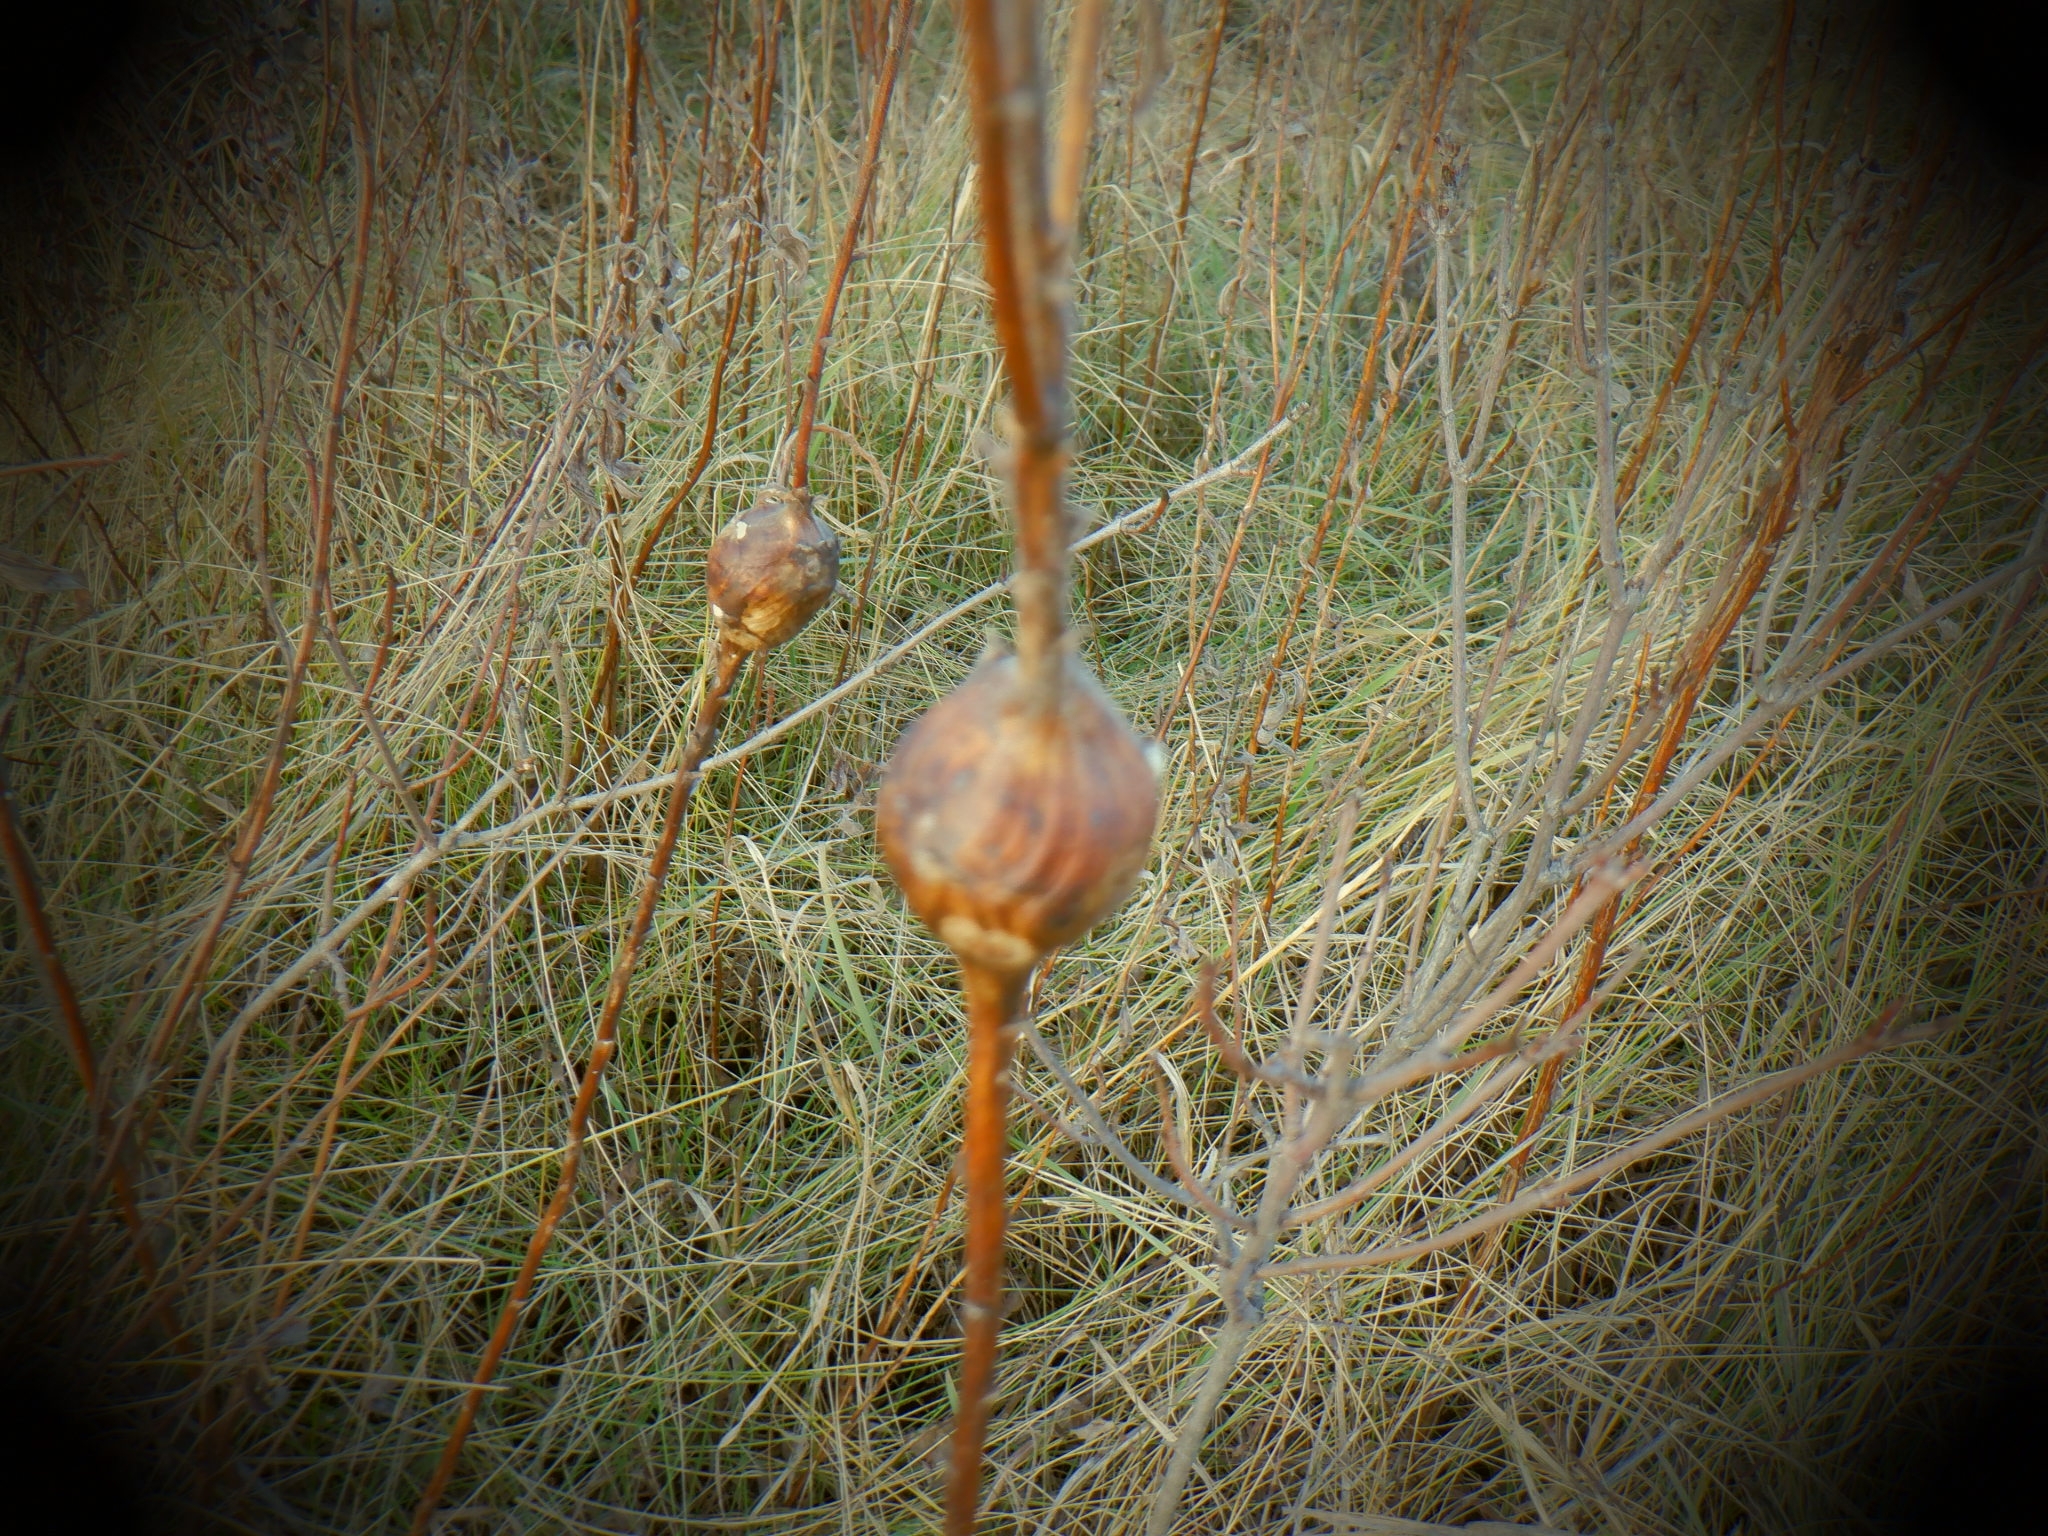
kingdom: Animalia
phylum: Arthropoda
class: Insecta
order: Diptera
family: Tephritidae
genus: Eurosta
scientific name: Eurosta solidaginis
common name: Goldenrod gall fly
